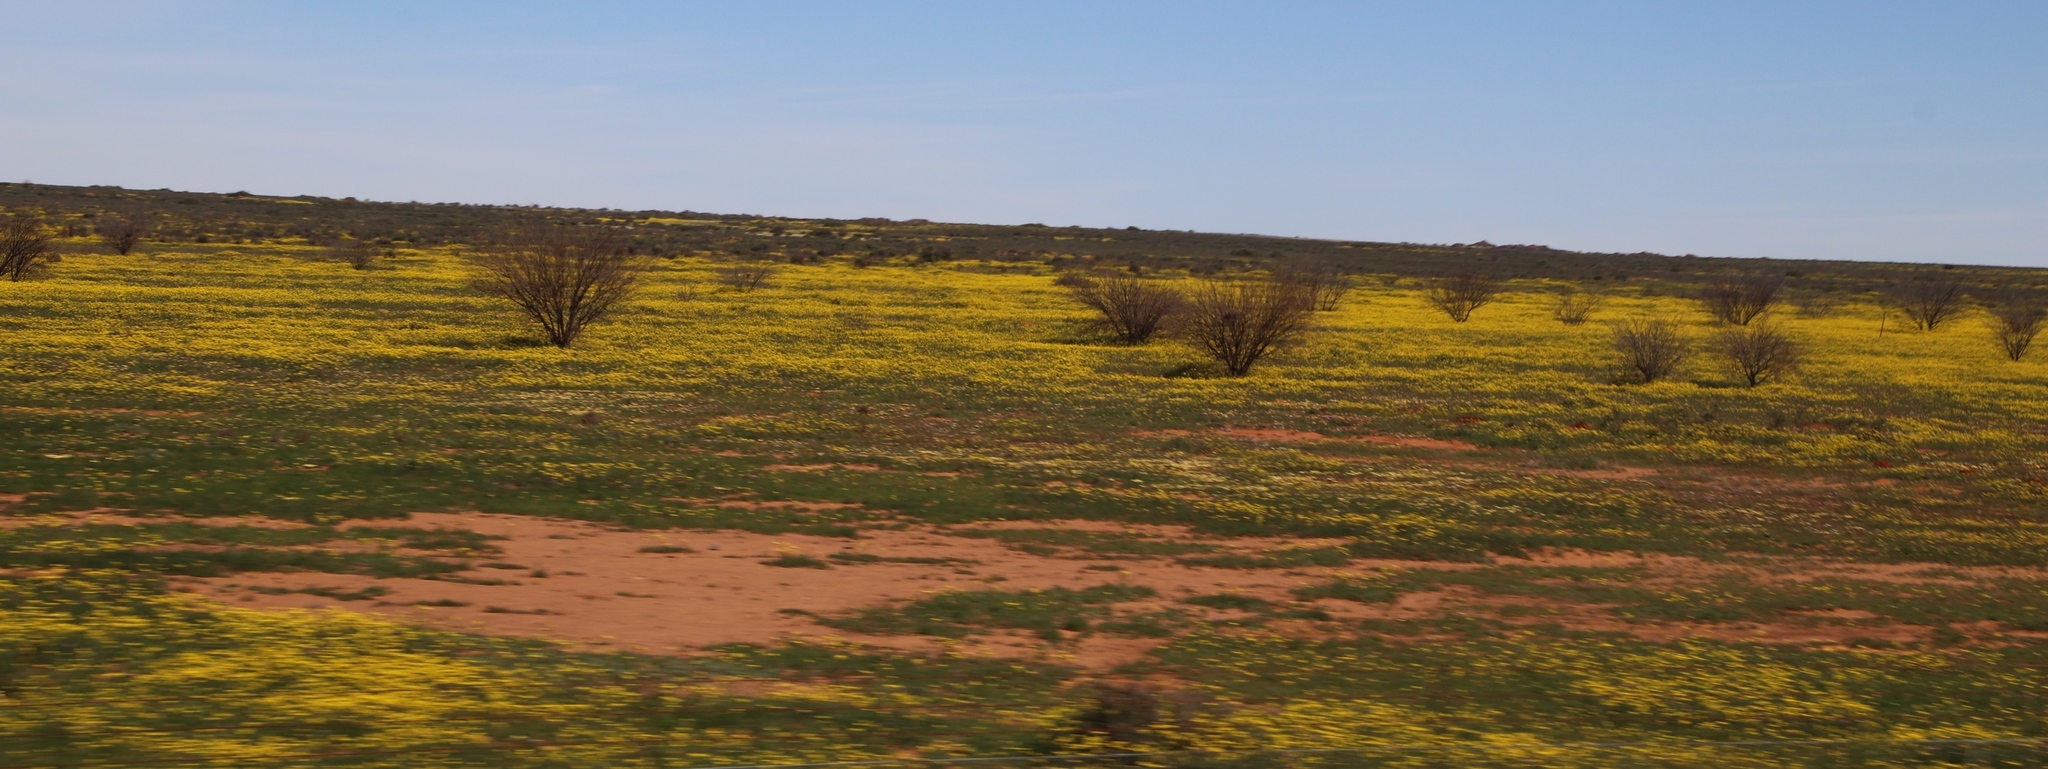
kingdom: Plantae
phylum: Tracheophyta
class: Magnoliopsida
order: Fabales
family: Fabaceae
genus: Prosopis
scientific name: Prosopis pubescens
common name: Screw-bean
